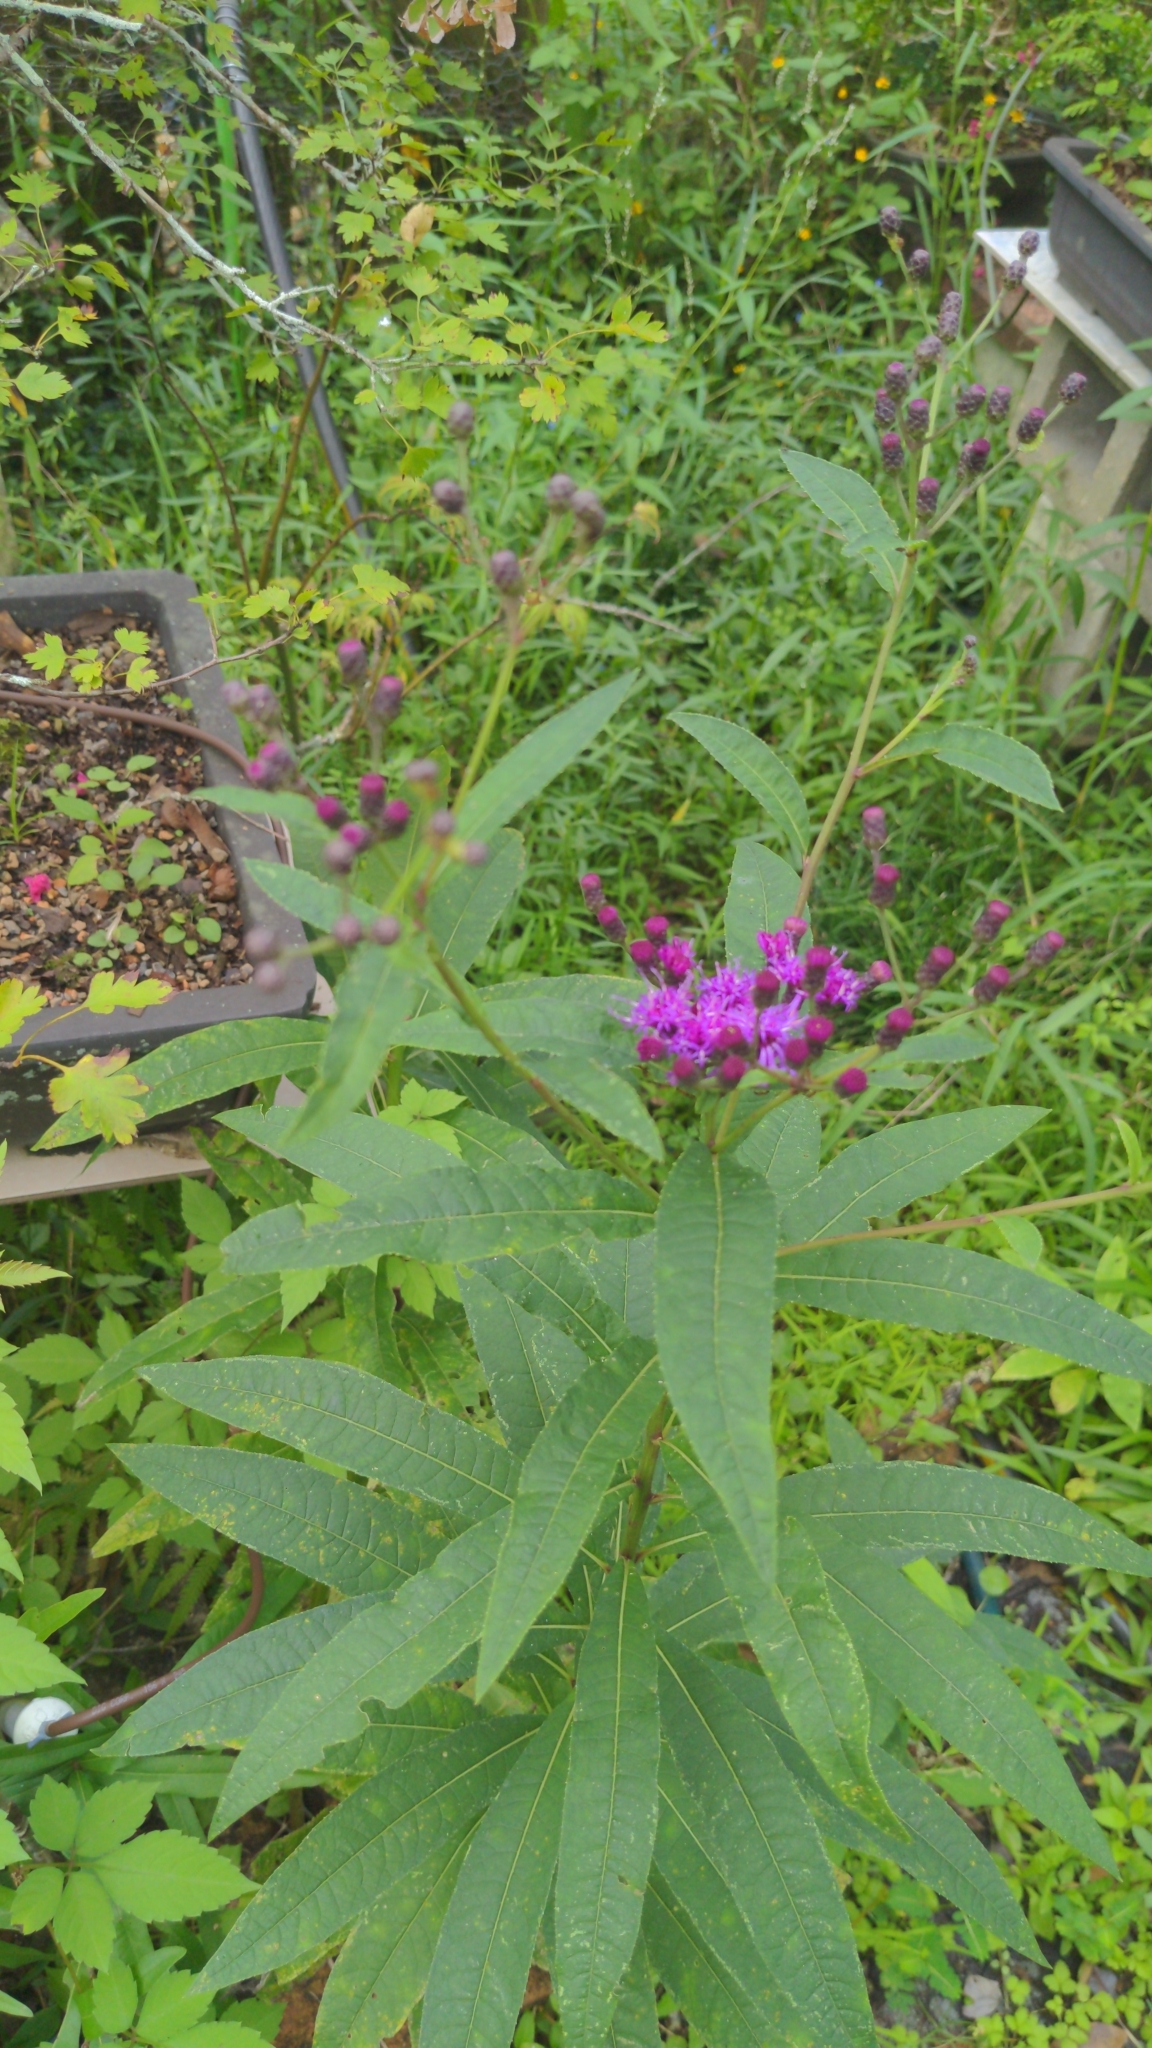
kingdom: Plantae
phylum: Tracheophyta
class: Magnoliopsida
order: Asterales
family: Asteraceae
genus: Vernonia
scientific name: Vernonia gigantea
